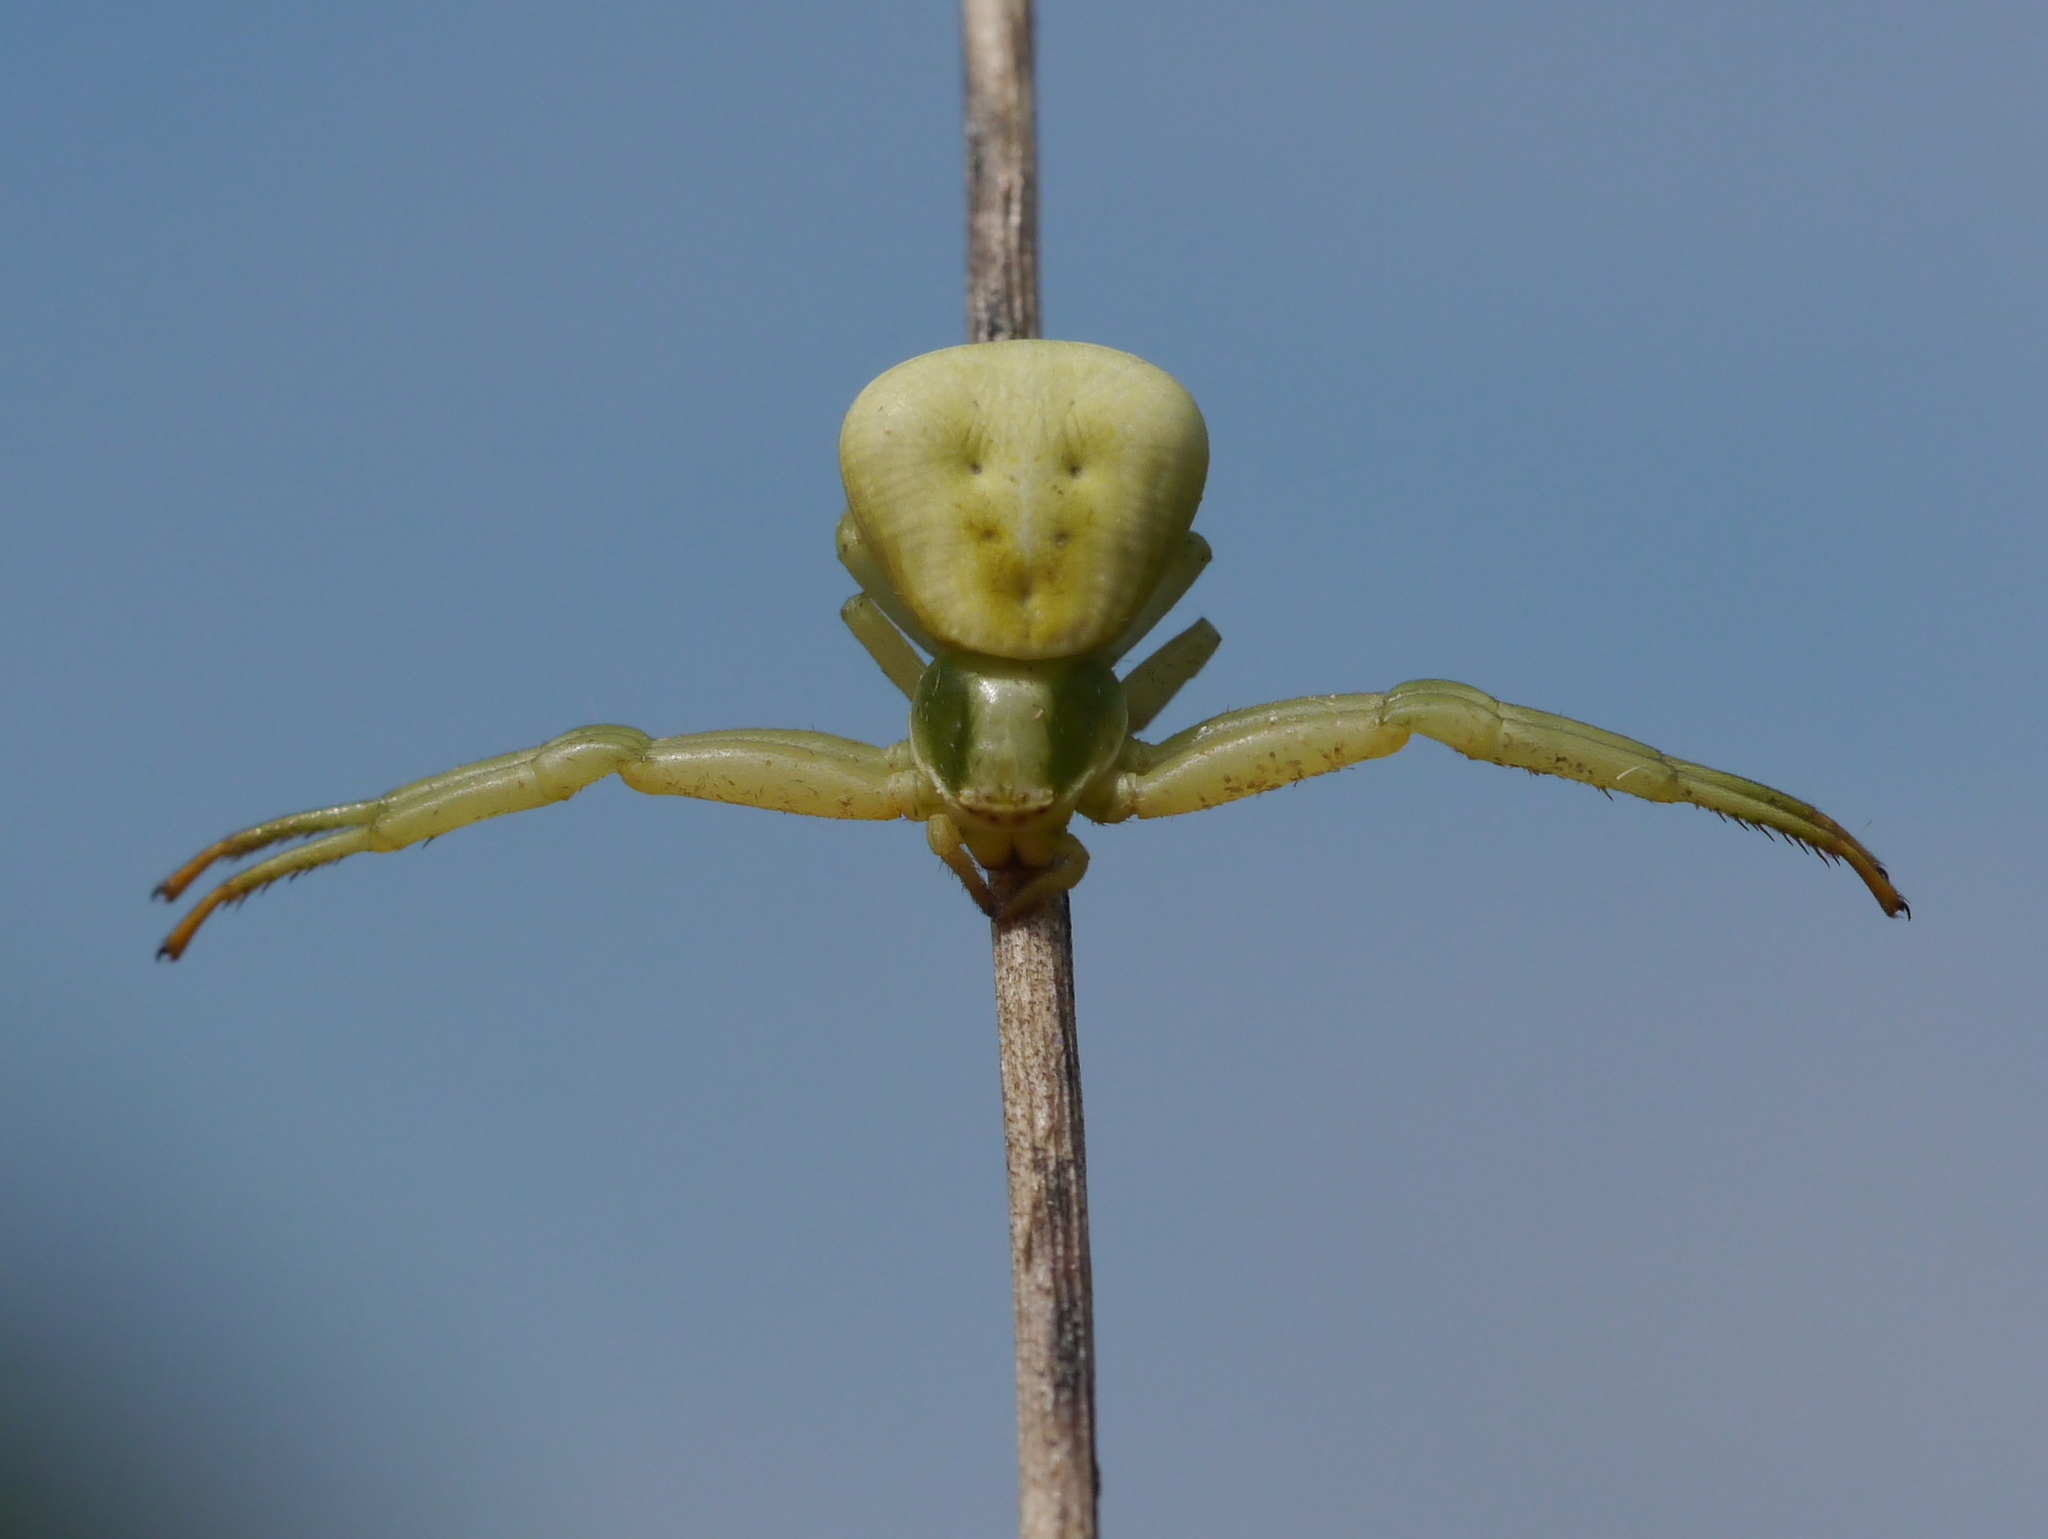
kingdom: Animalia
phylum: Arthropoda
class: Arachnida
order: Araneae
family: Thomisidae
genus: Misumenoides
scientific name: Misumenoides formosipes
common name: White-banded crab spider
